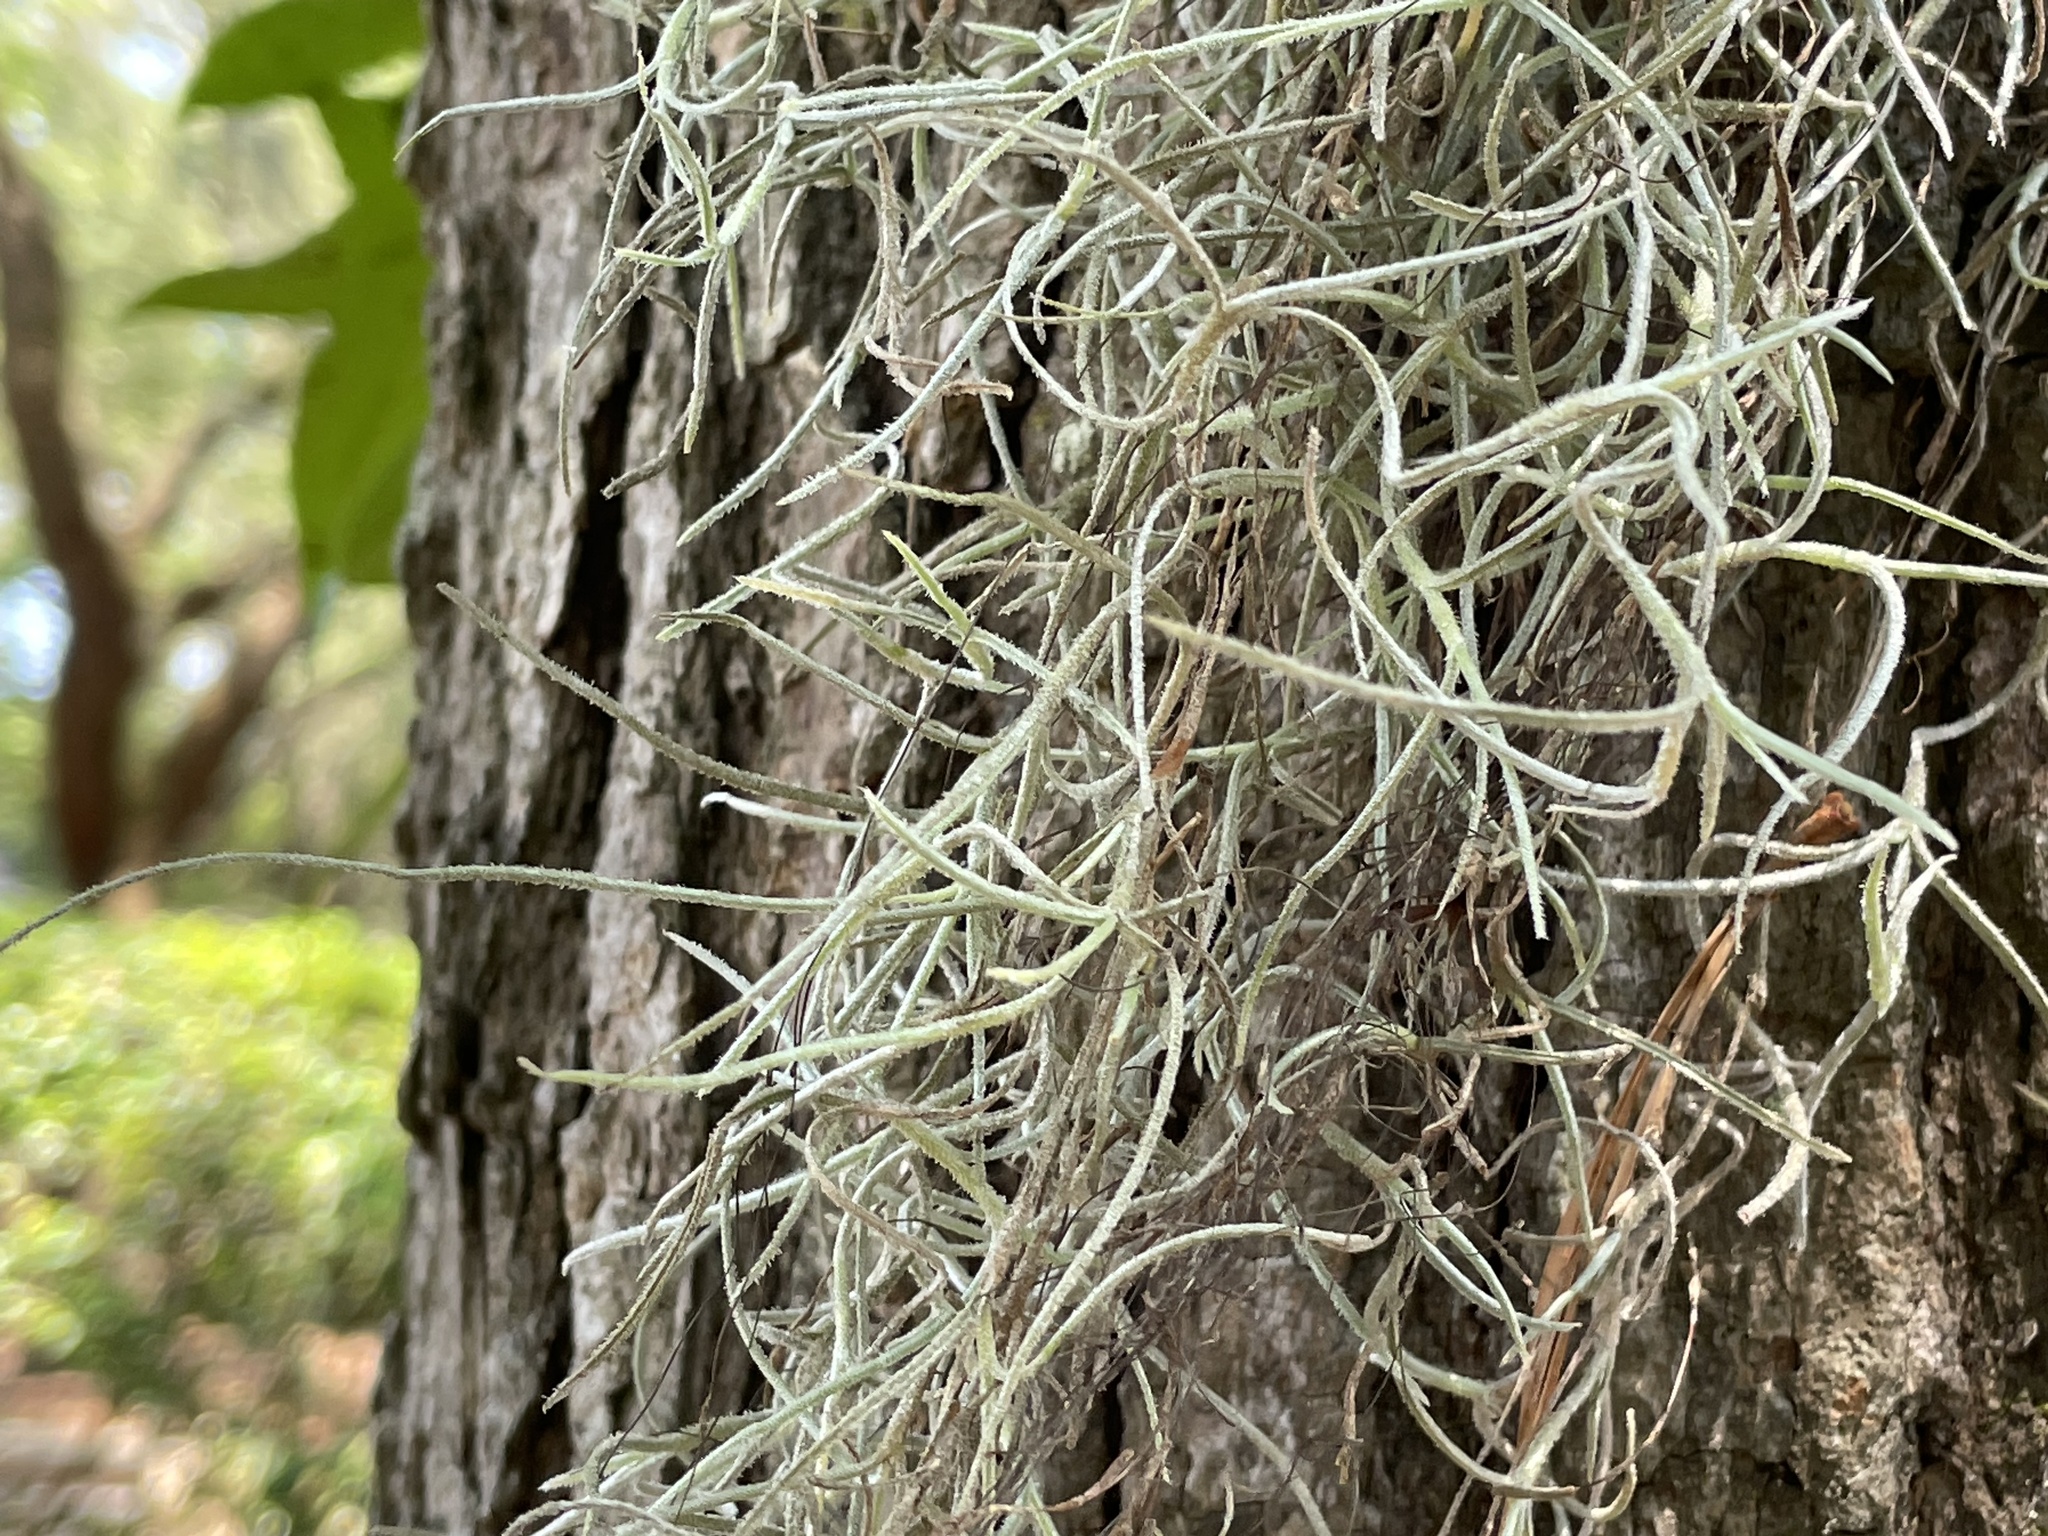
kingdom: Plantae
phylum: Tracheophyta
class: Liliopsida
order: Poales
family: Bromeliaceae
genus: Tillandsia
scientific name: Tillandsia usneoides
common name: Spanish moss
